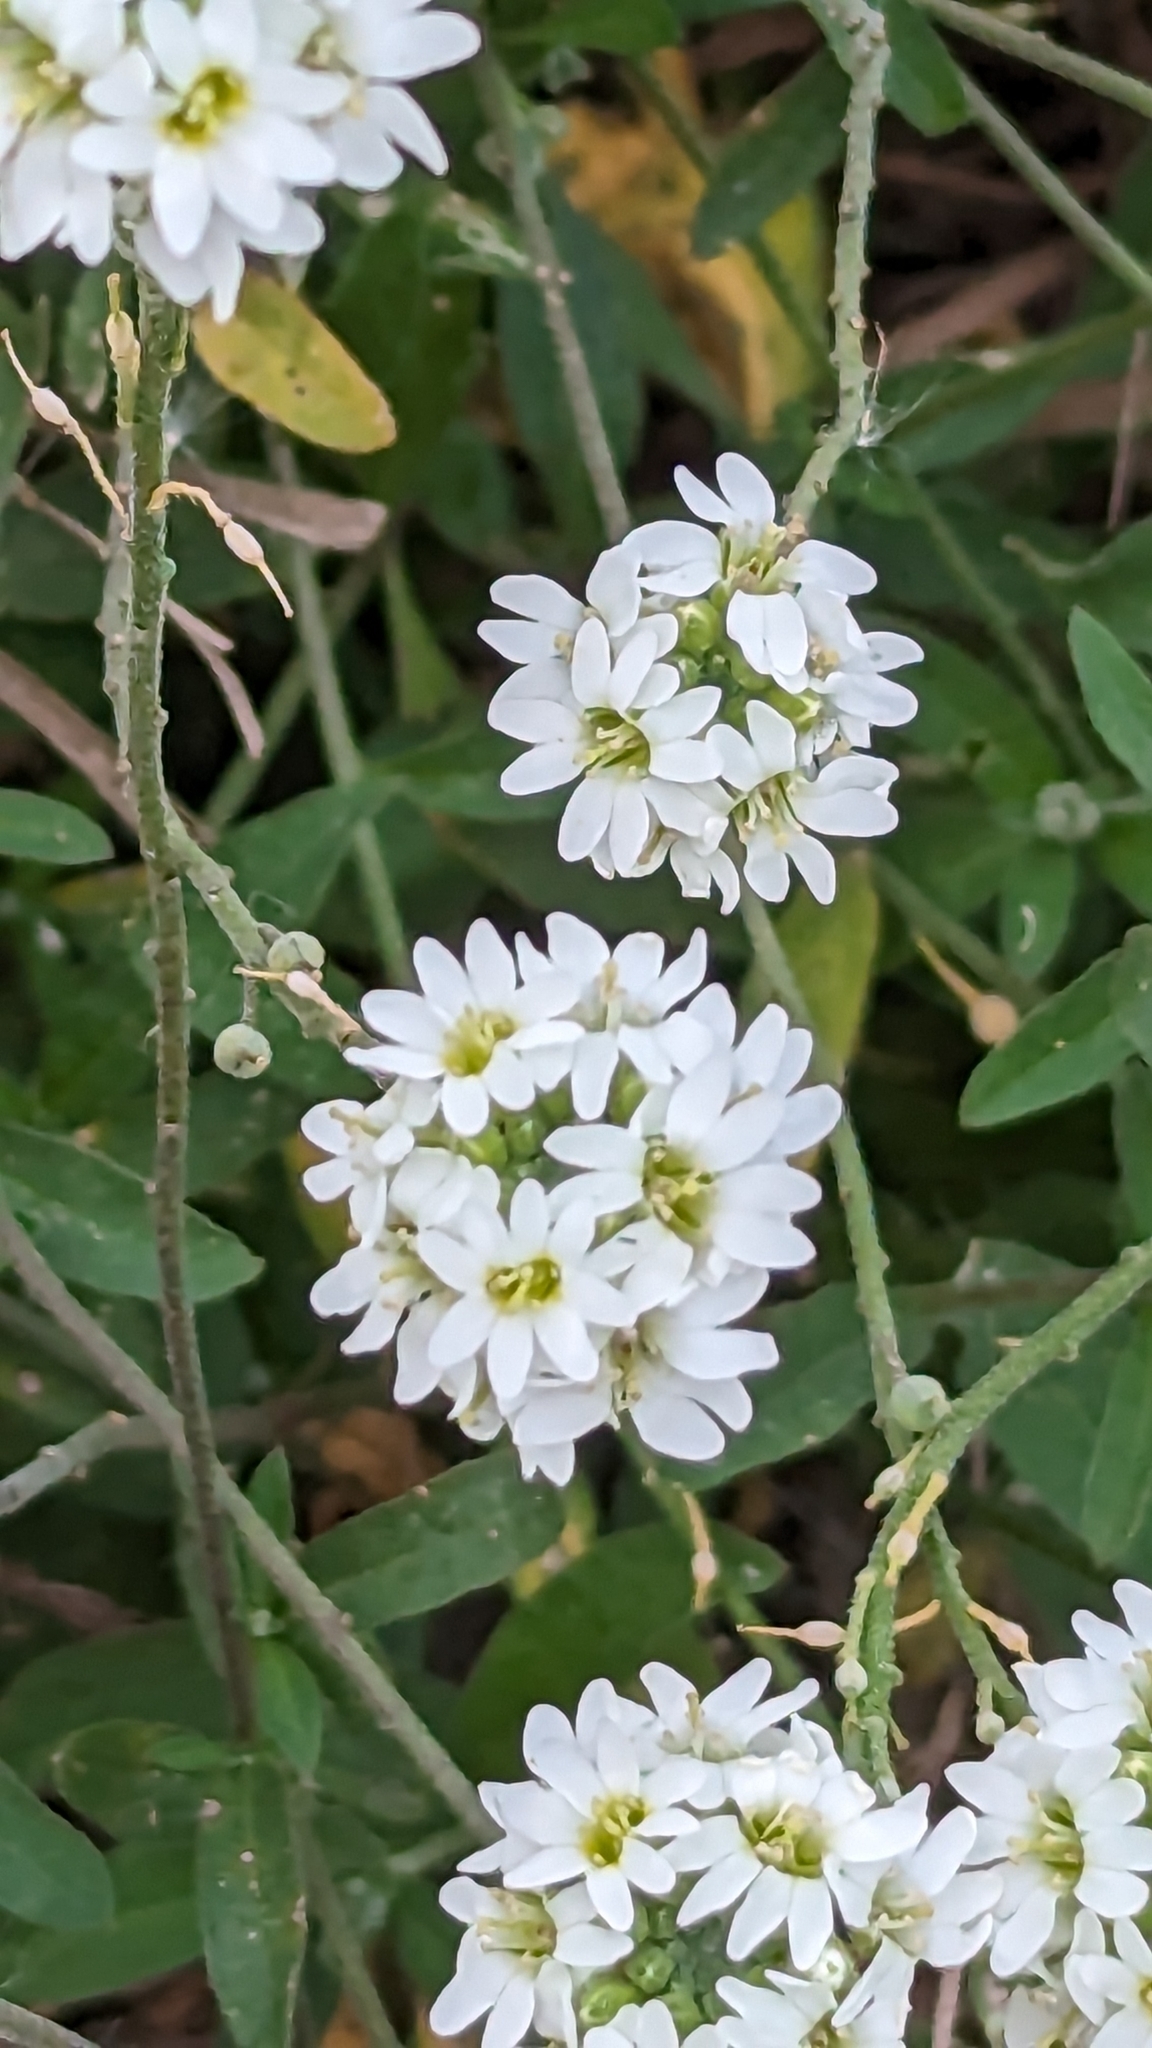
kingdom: Plantae
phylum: Tracheophyta
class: Magnoliopsida
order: Brassicales
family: Brassicaceae
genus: Berteroa
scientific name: Berteroa incana
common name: Hoary alison
